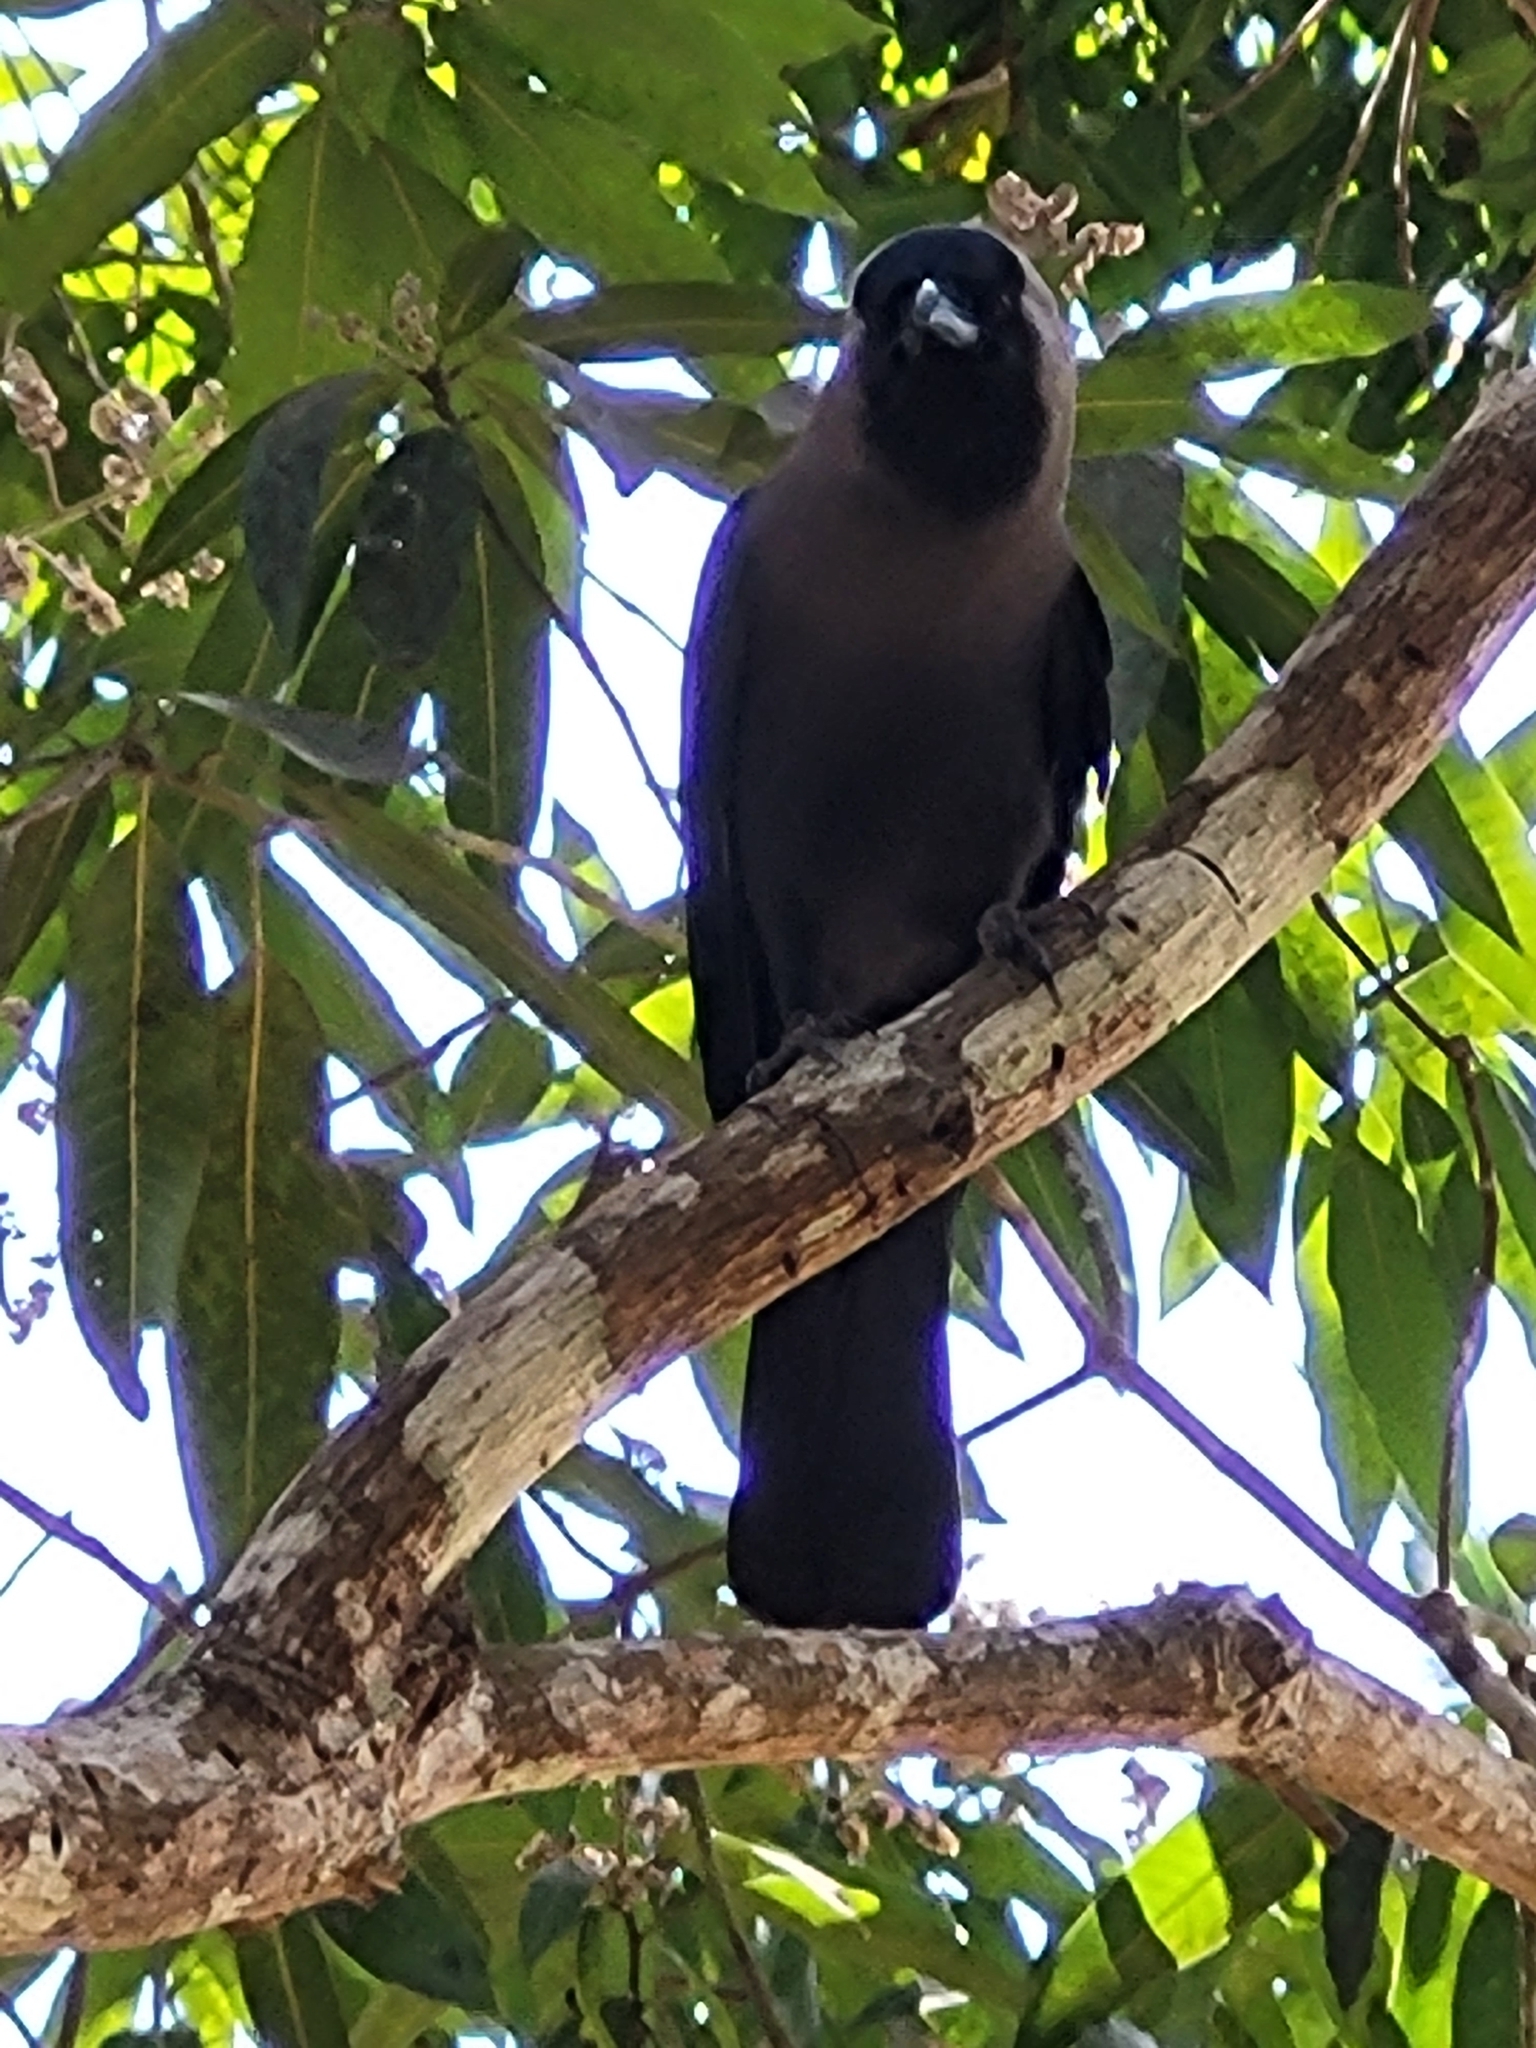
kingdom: Animalia
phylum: Chordata
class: Aves
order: Passeriformes
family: Corvidae
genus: Corvus
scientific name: Corvus splendens
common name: House crow
